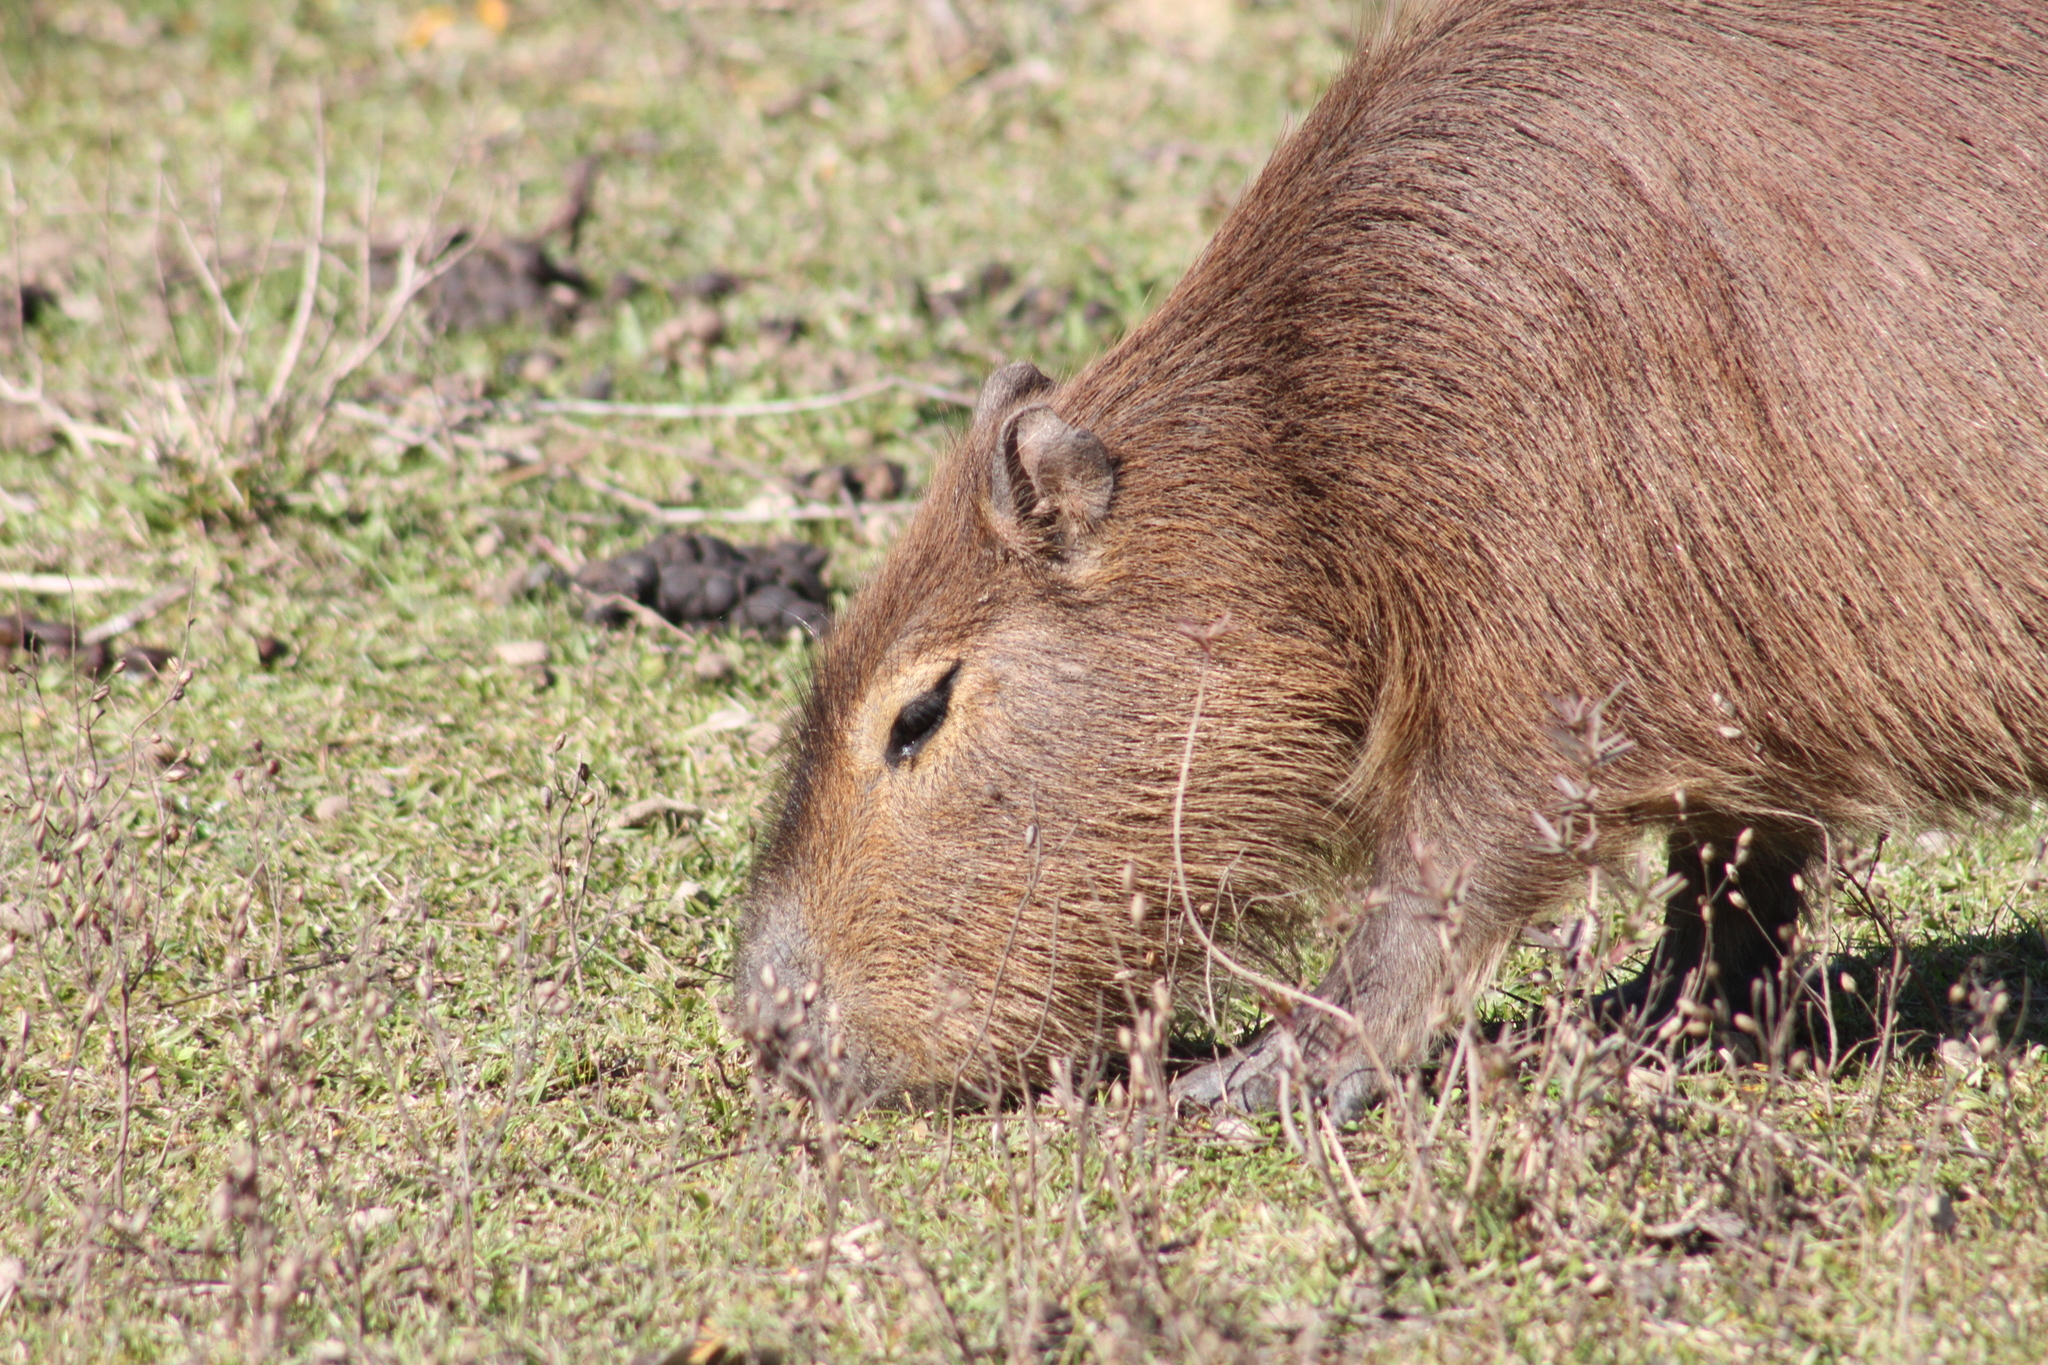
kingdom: Animalia
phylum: Chordata
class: Mammalia
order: Rodentia
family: Caviidae
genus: Hydrochoerus
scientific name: Hydrochoerus hydrochaeris
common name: Capybara
